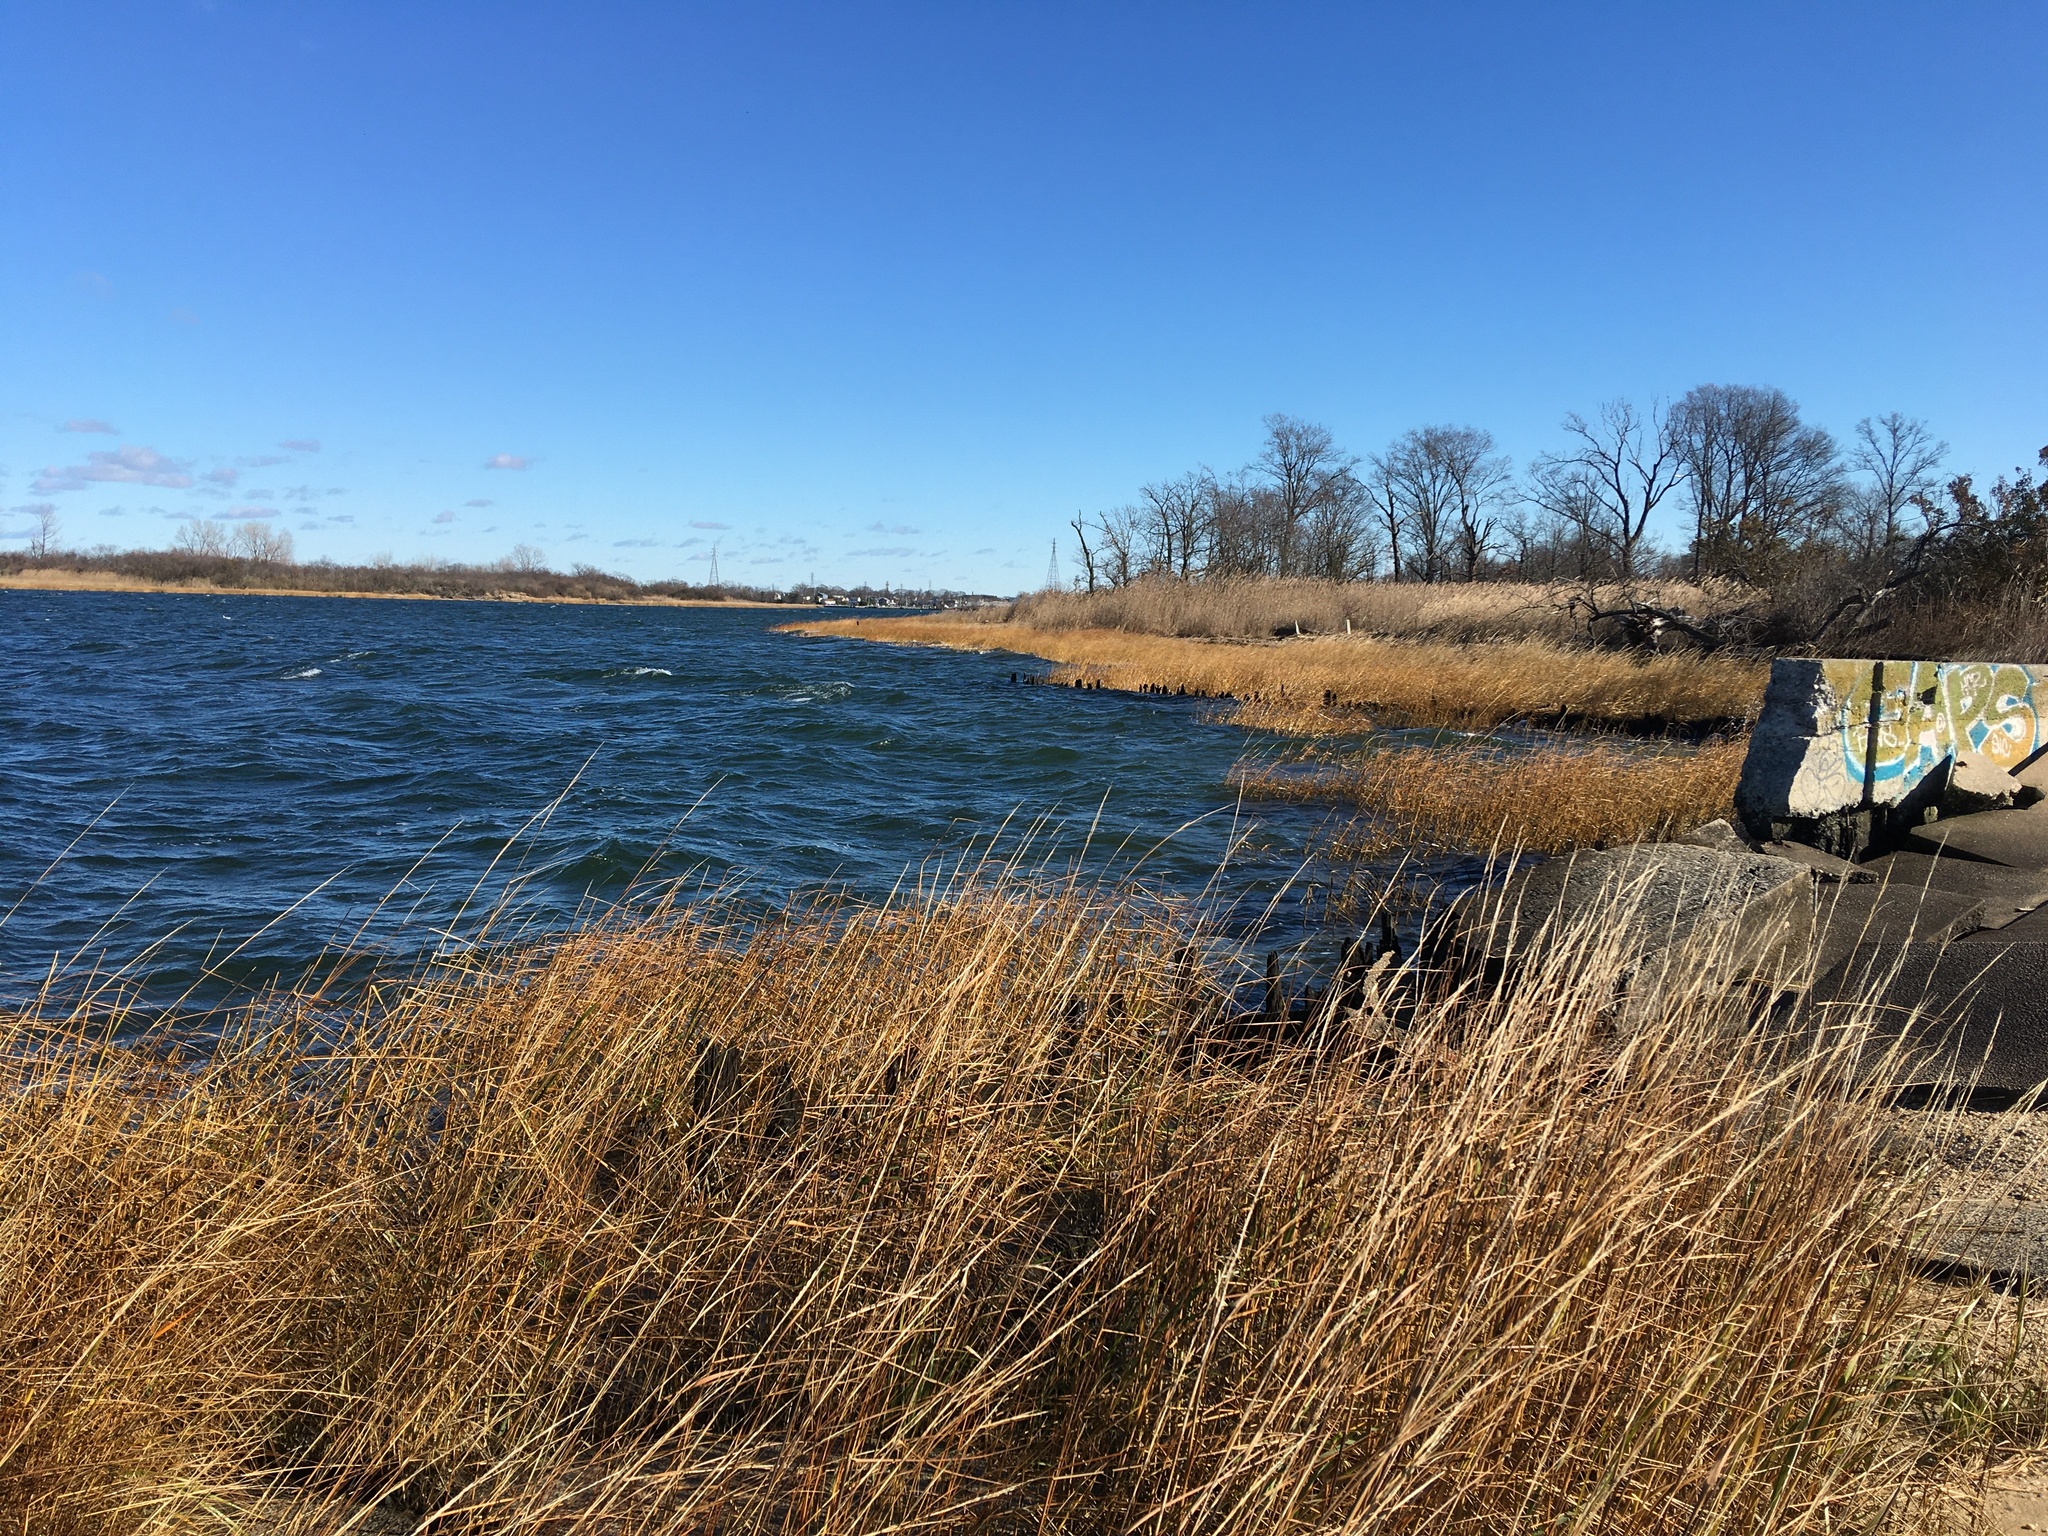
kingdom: Plantae
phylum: Tracheophyta
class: Liliopsida
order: Poales
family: Poaceae
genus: Sporobolus
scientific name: Sporobolus alterniflorus
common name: Atlantic cordgrass
